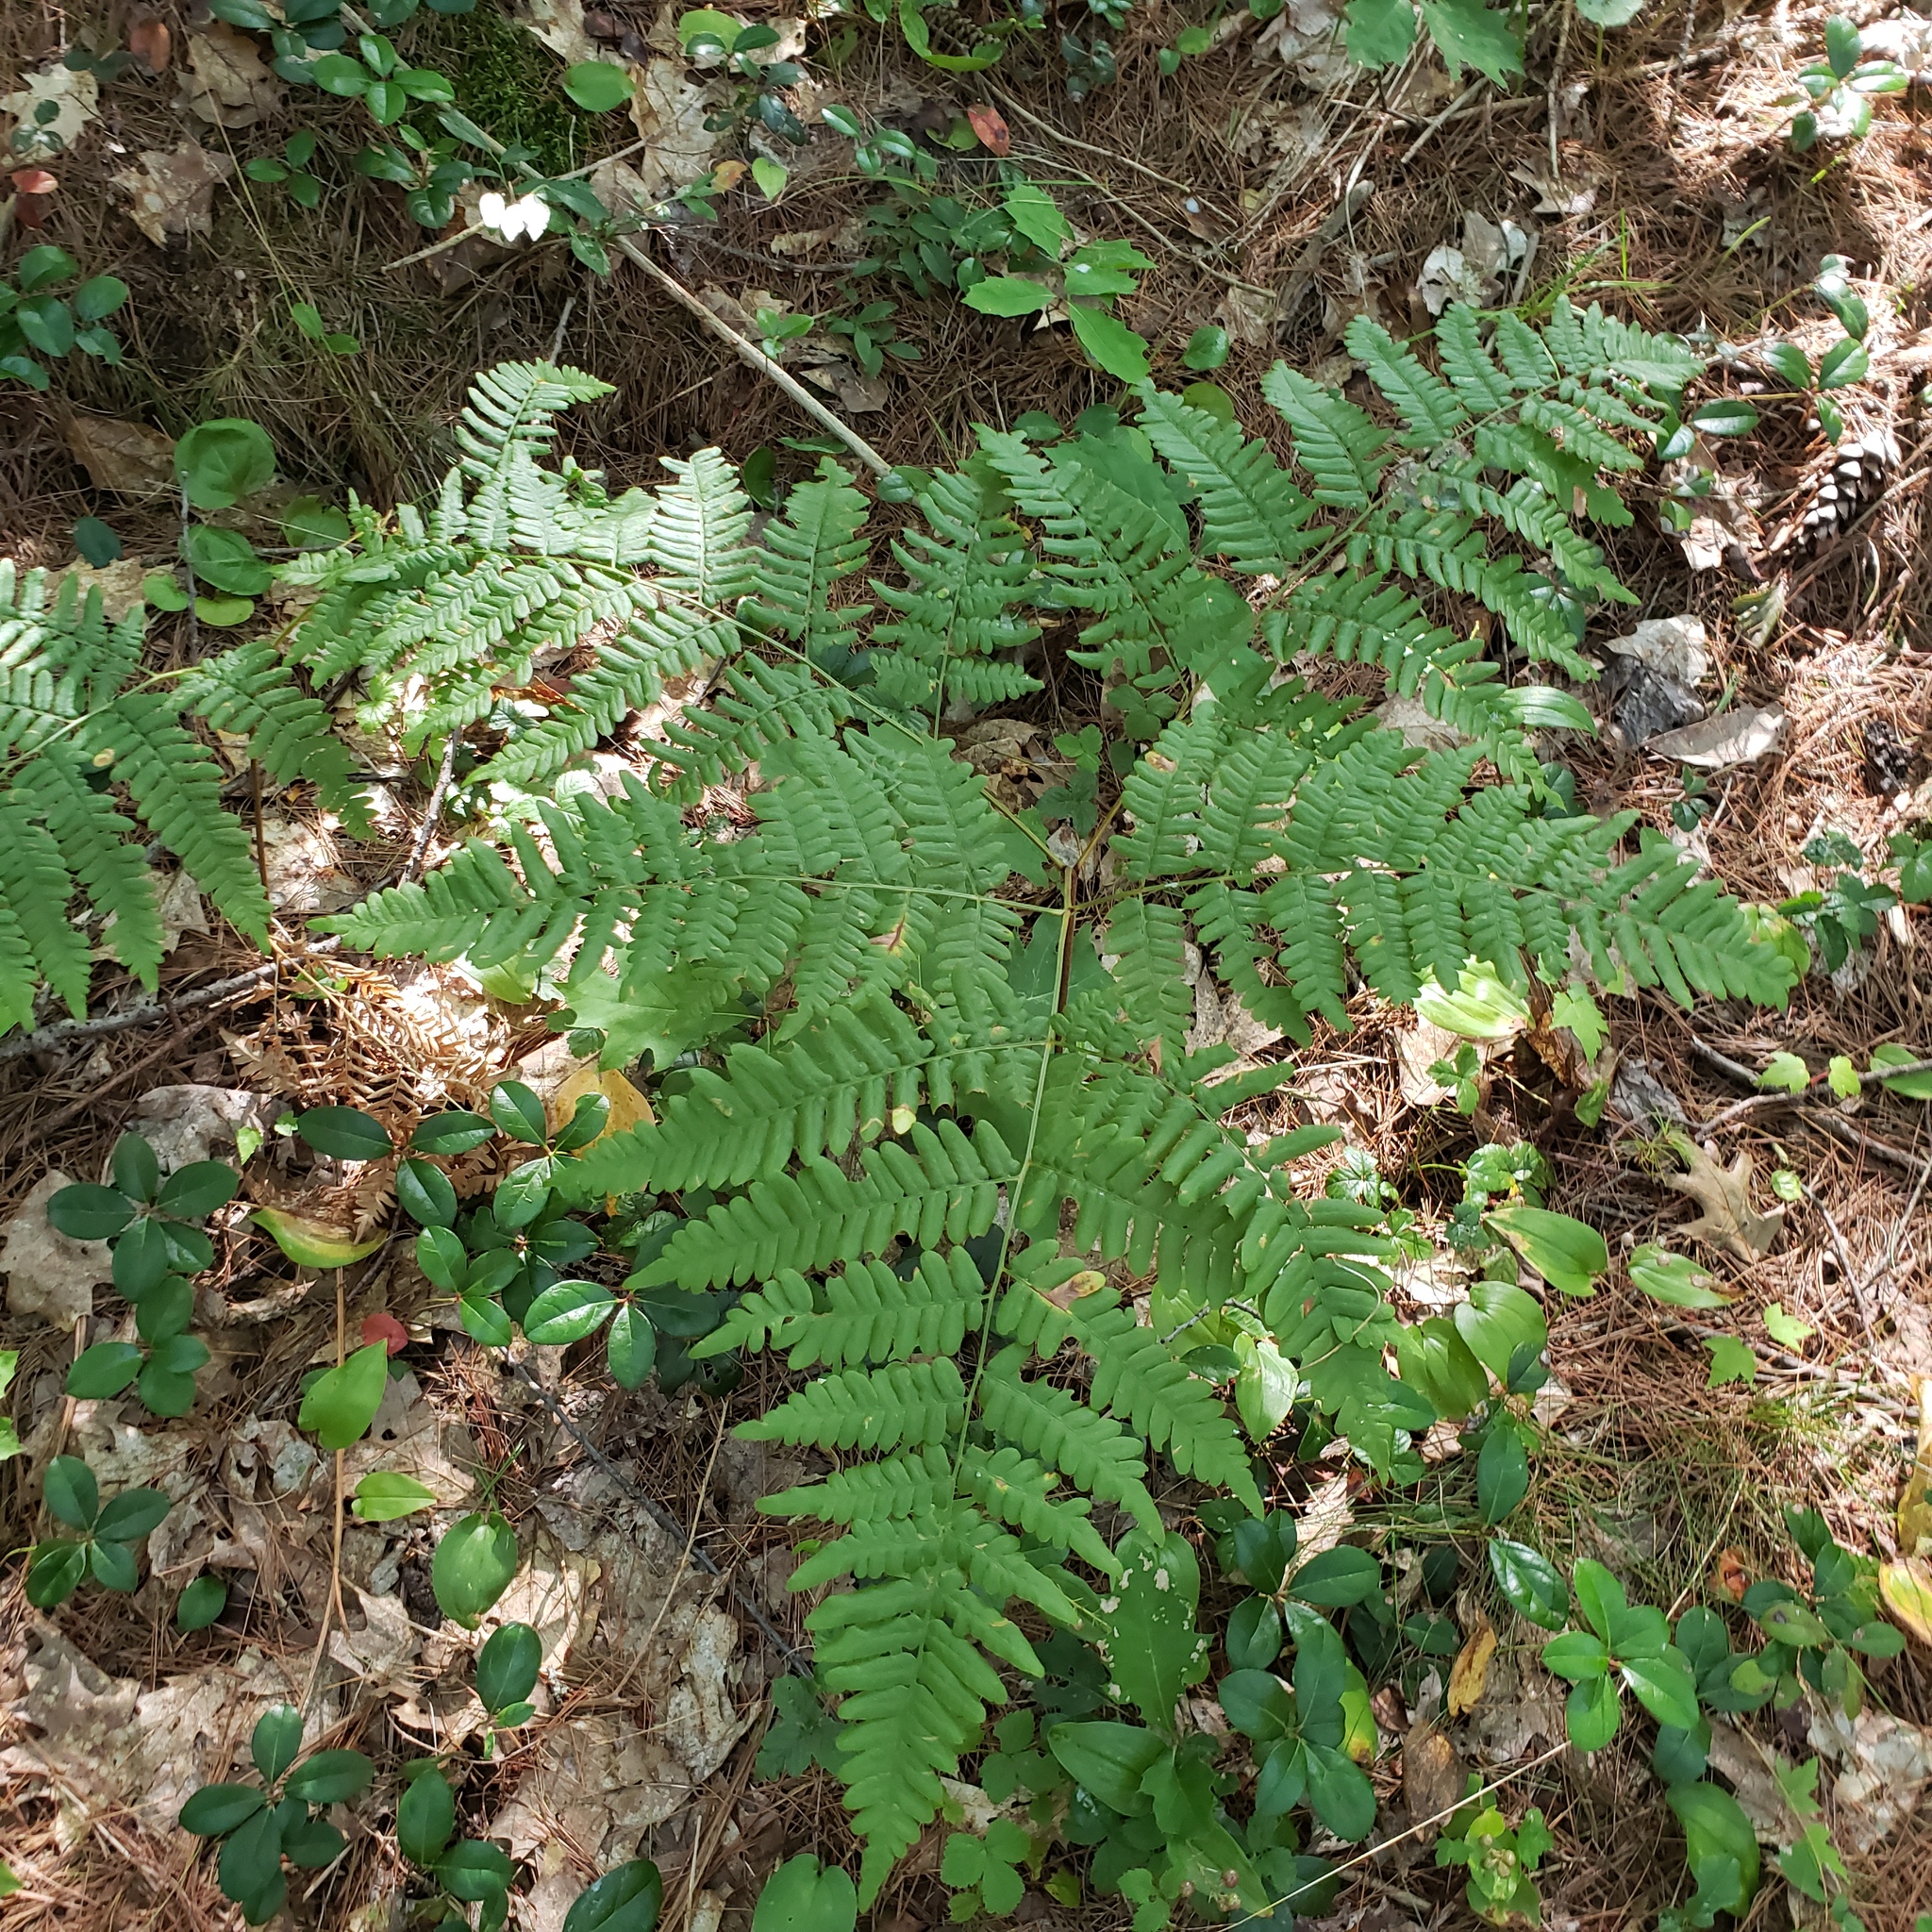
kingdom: Plantae
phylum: Tracheophyta
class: Polypodiopsida
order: Polypodiales
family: Dennstaedtiaceae
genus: Pteridium
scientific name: Pteridium aquilinum
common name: Bracken
